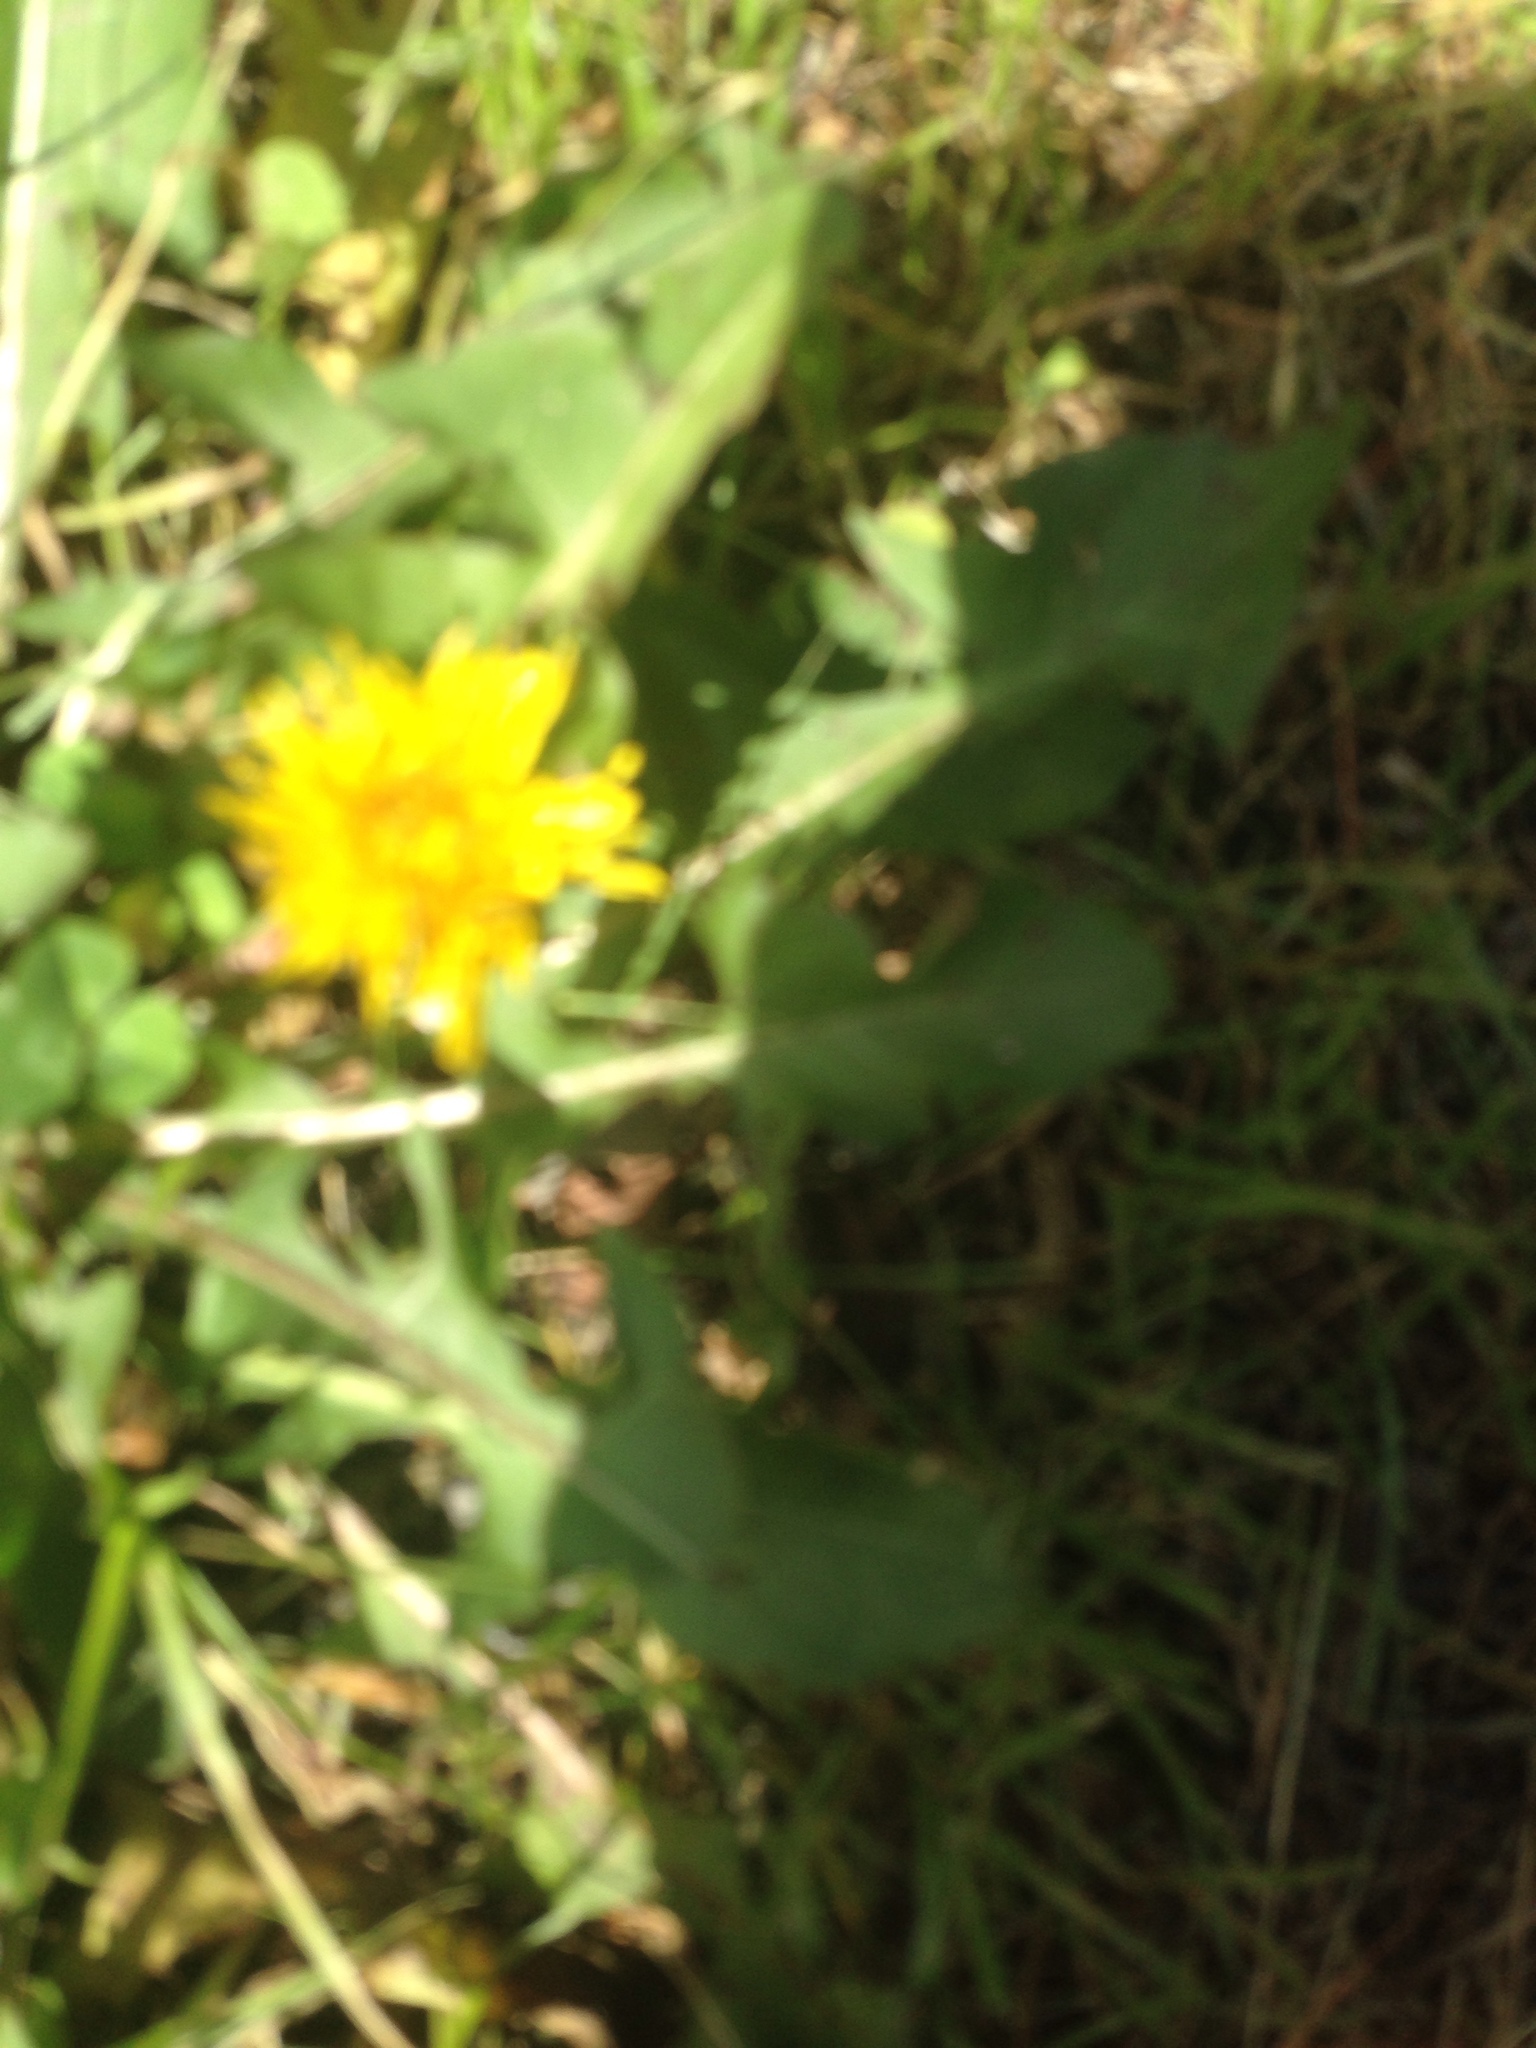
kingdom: Plantae
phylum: Tracheophyta
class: Magnoliopsida
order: Asterales
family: Asteraceae
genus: Taraxacum
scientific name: Taraxacum officinale
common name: Common dandelion
